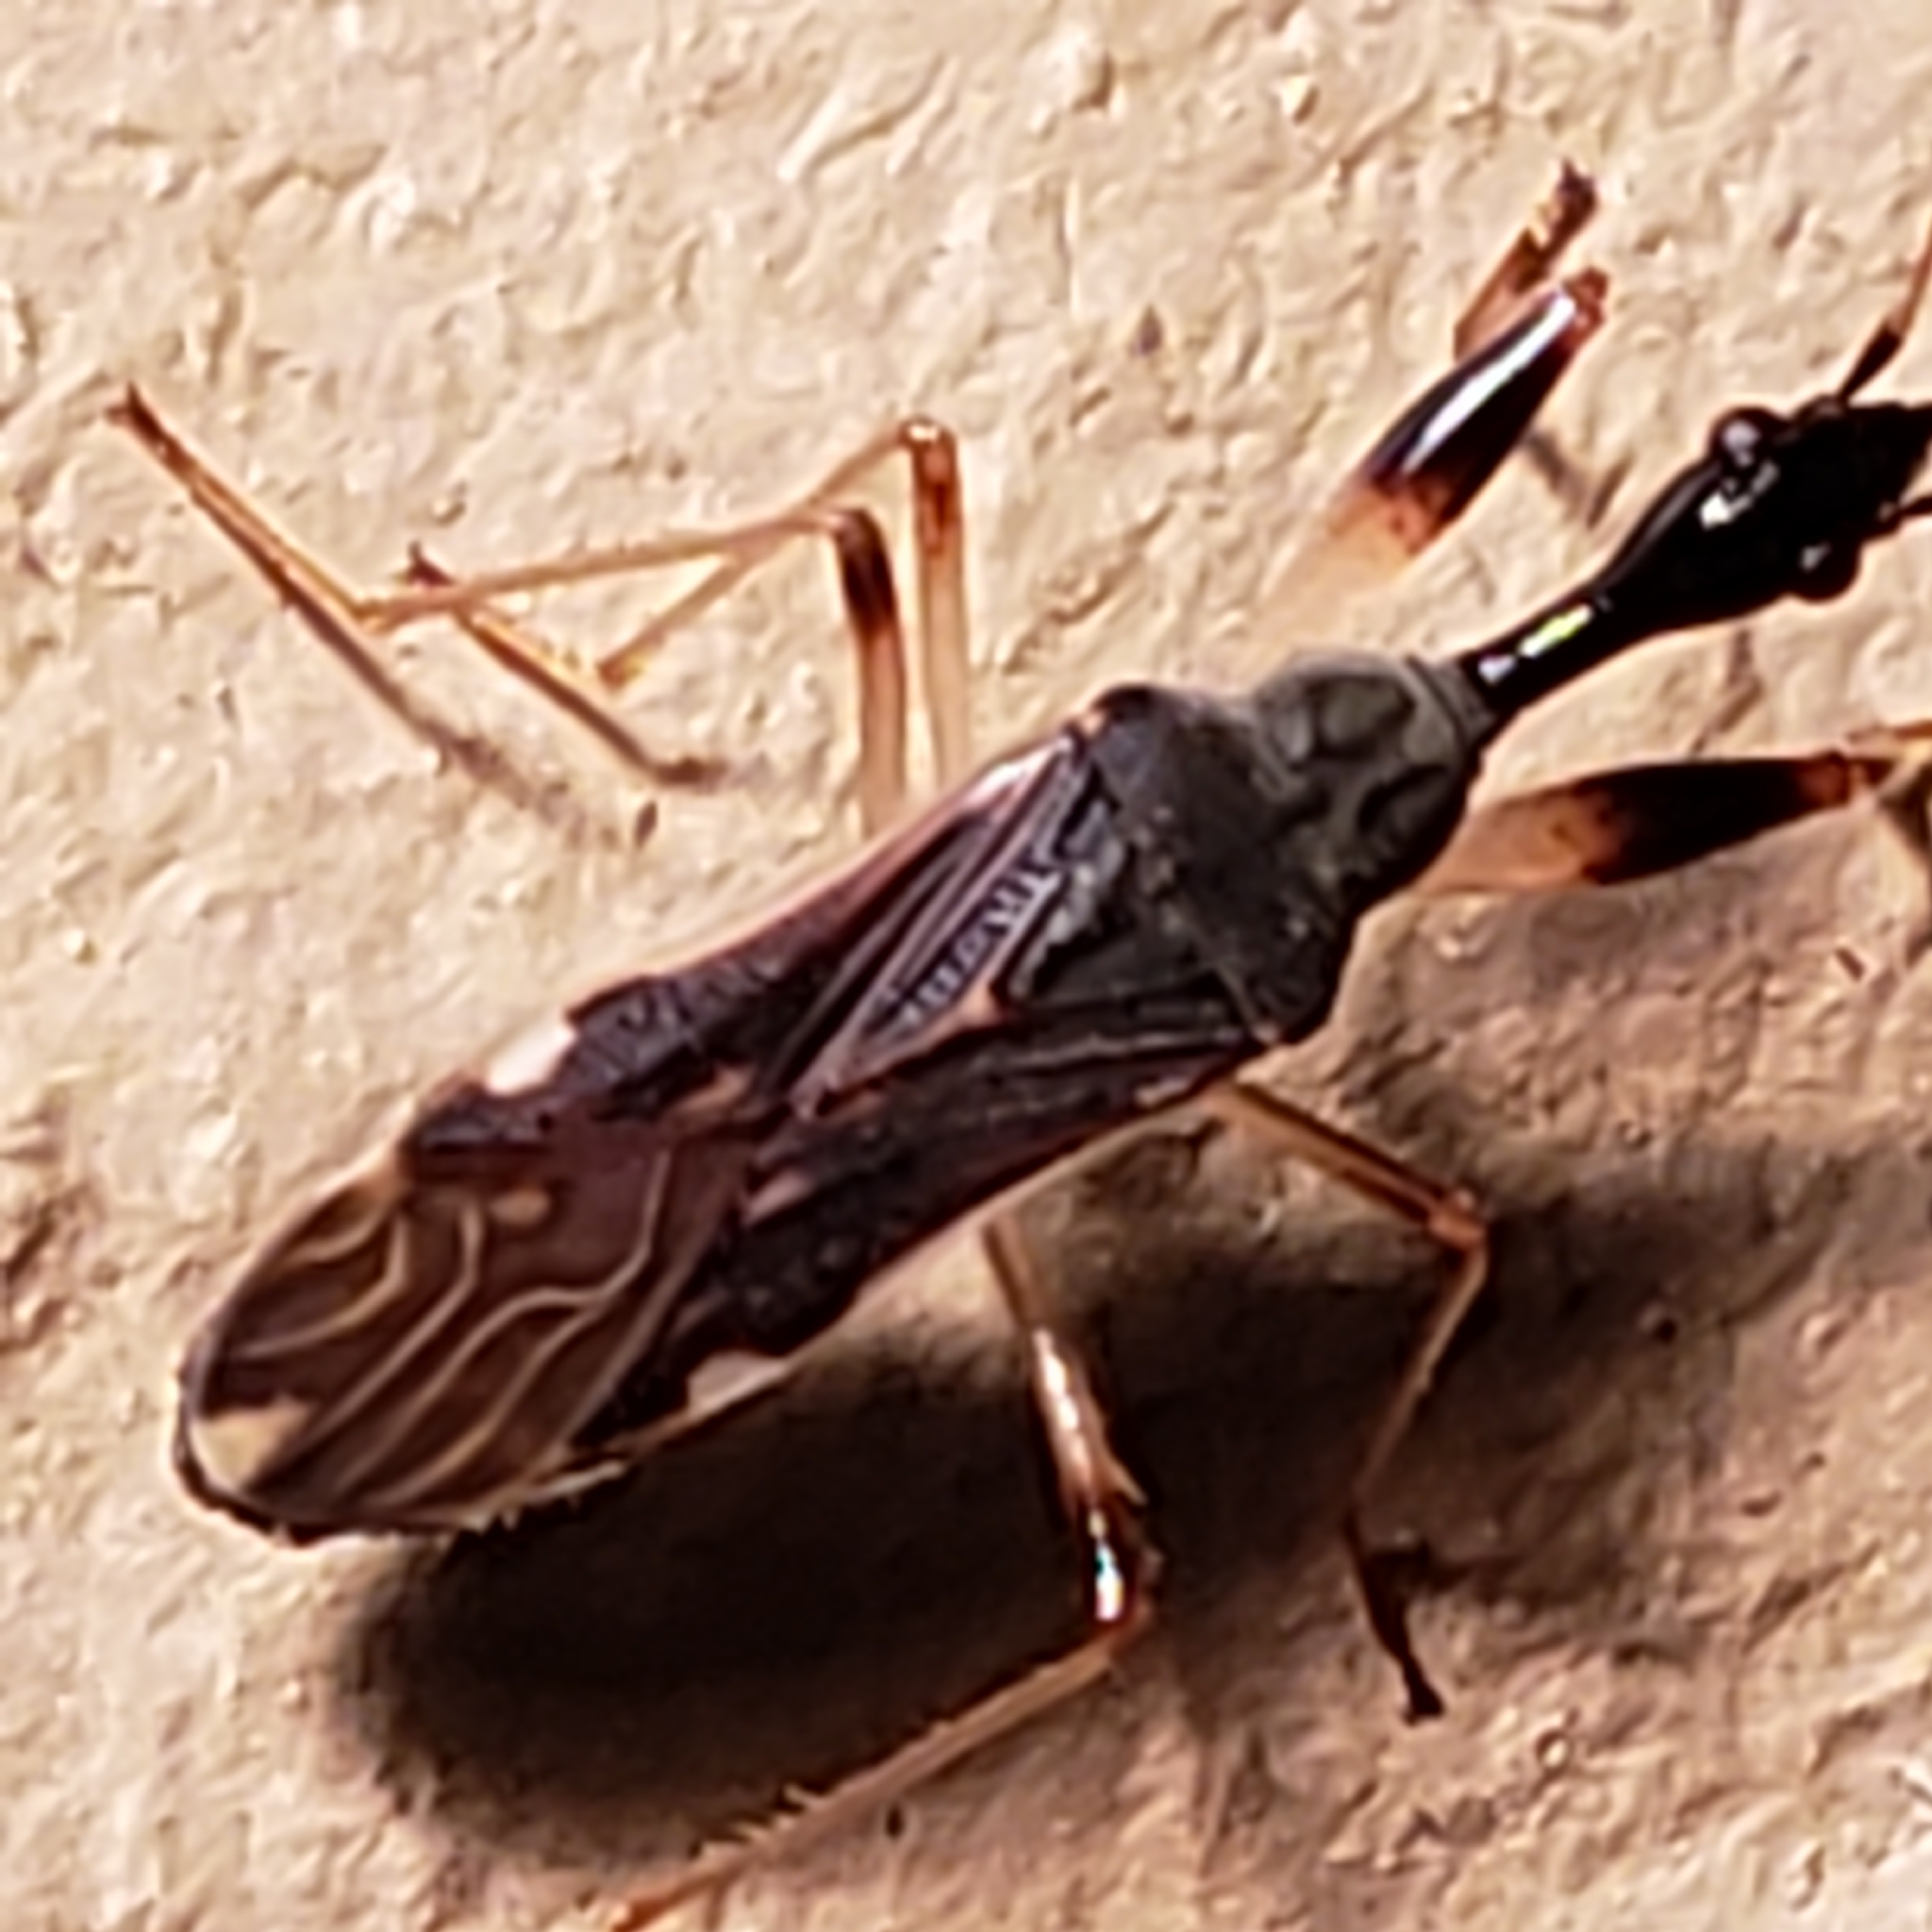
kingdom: Animalia
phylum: Arthropoda
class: Insecta
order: Hemiptera
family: Rhyparochromidae
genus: Myodocha
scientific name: Myodocha serripes
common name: Long-necked seed bug
